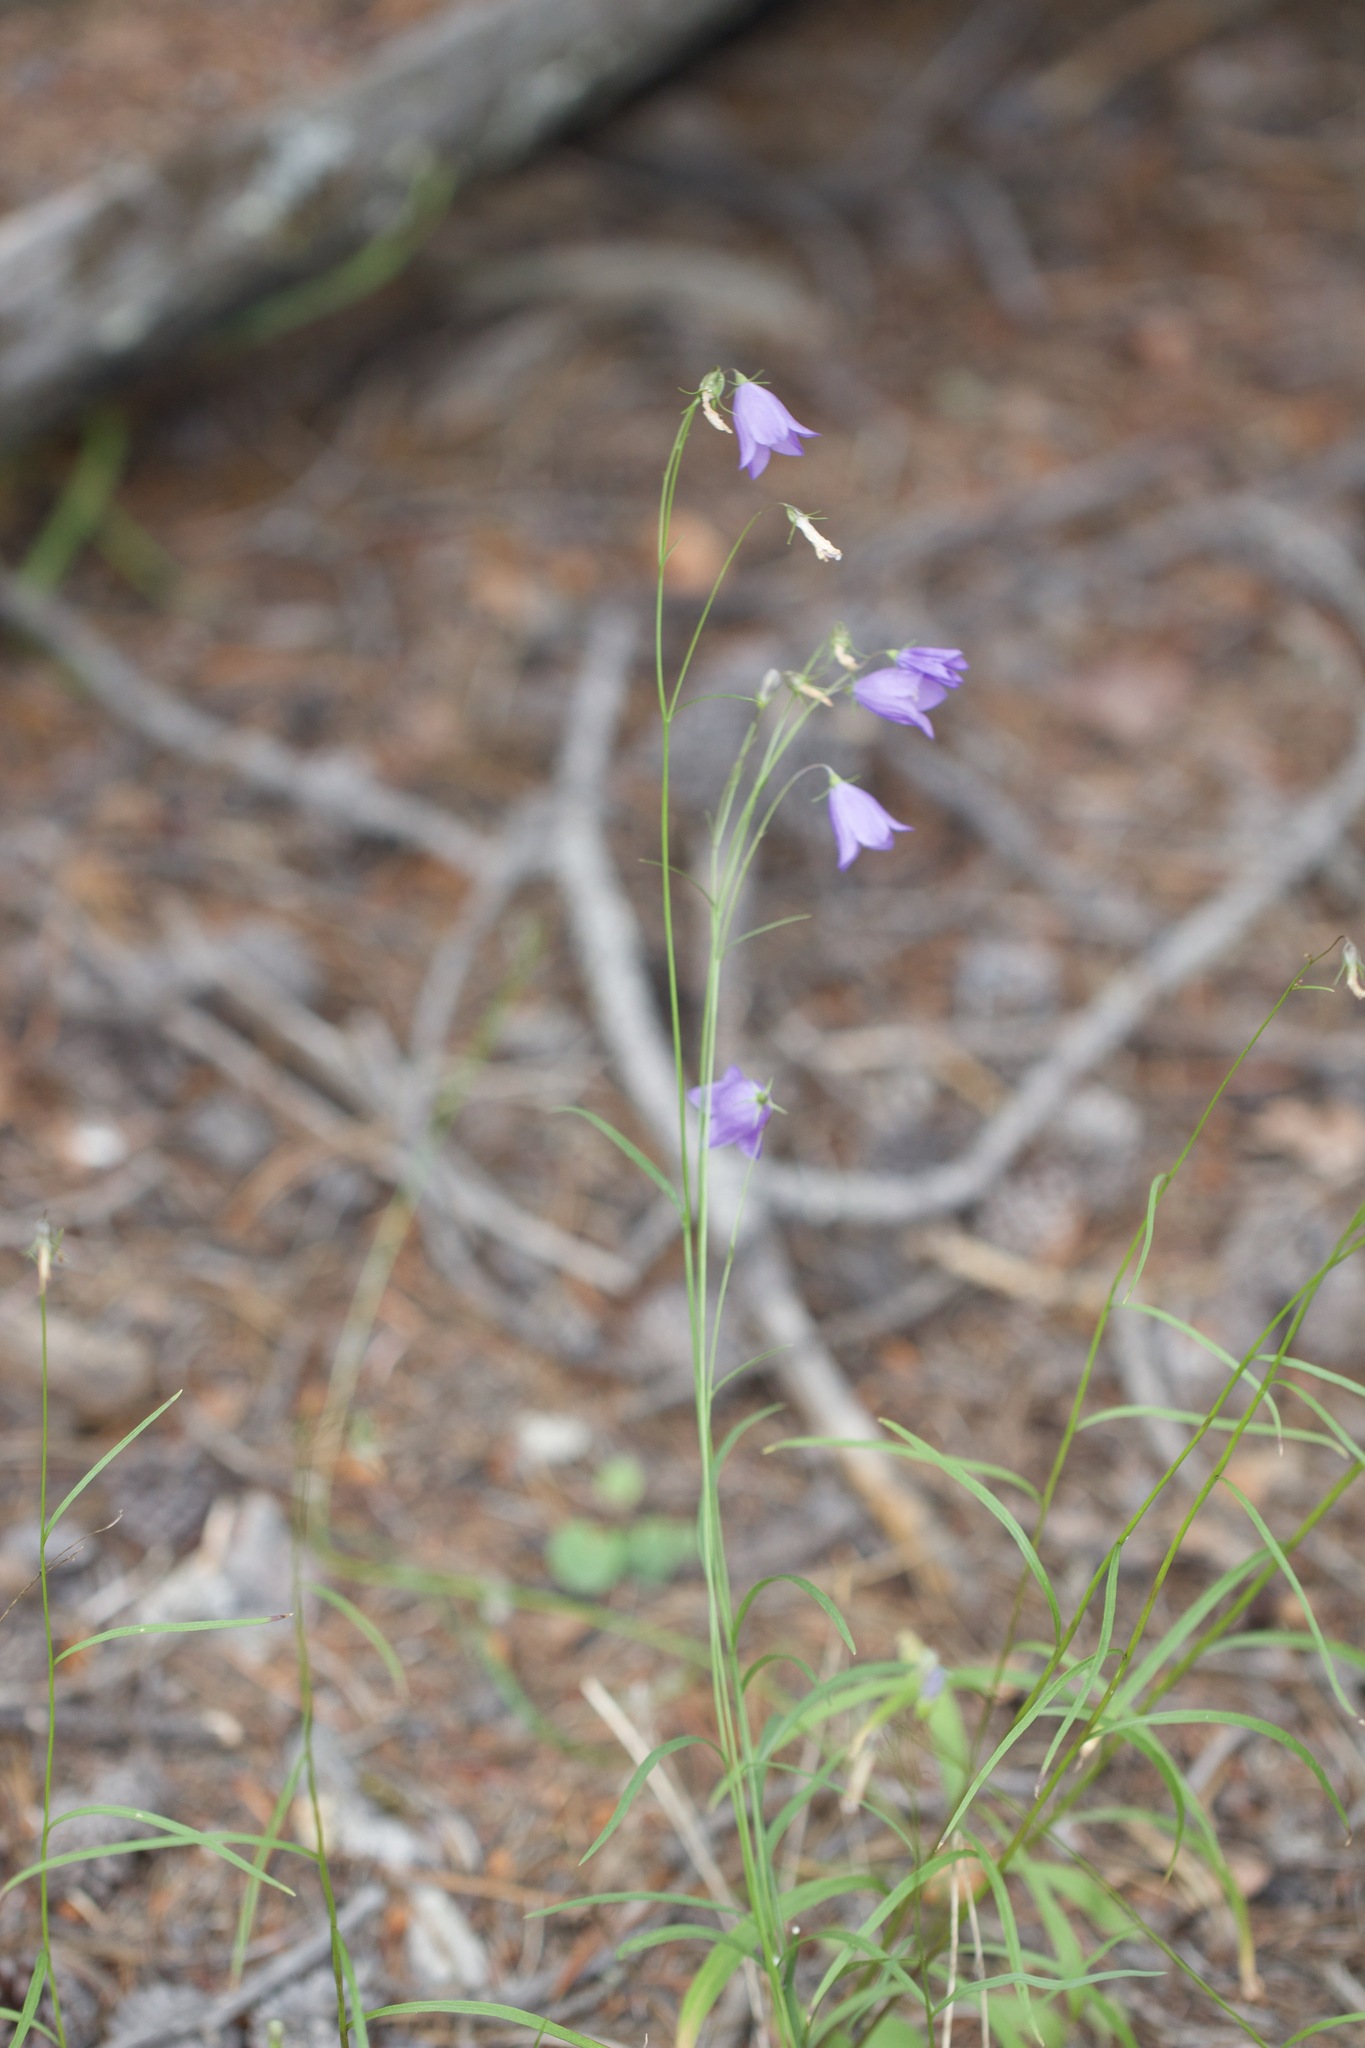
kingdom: Plantae
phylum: Tracheophyta
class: Magnoliopsida
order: Asterales
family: Campanulaceae
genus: Campanula
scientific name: Campanula alaskana
